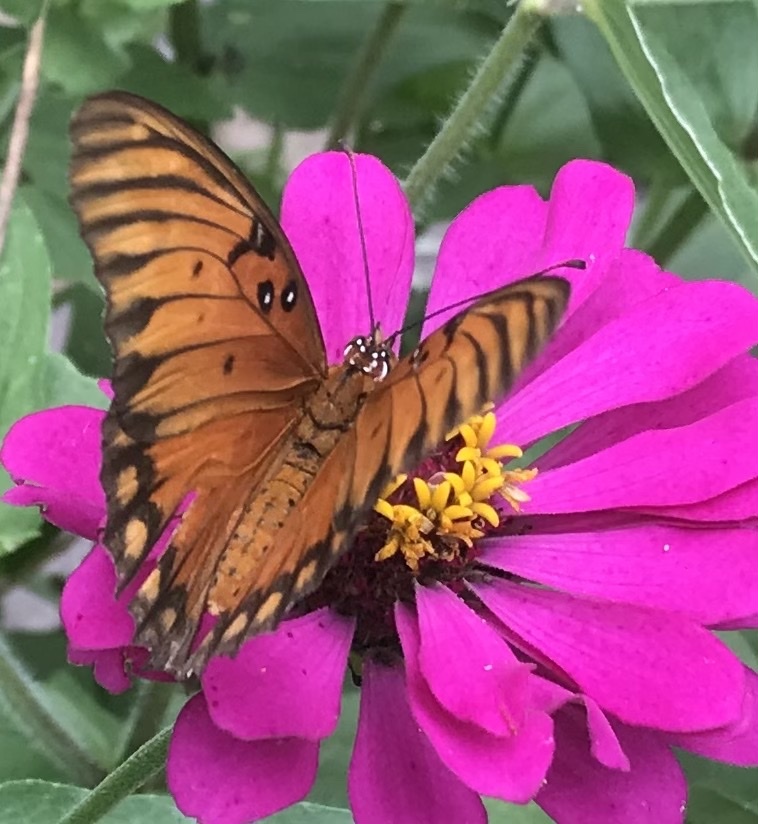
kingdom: Animalia
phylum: Arthropoda
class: Insecta
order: Lepidoptera
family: Nymphalidae
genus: Dione
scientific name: Dione vanillae
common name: Gulf fritillary
